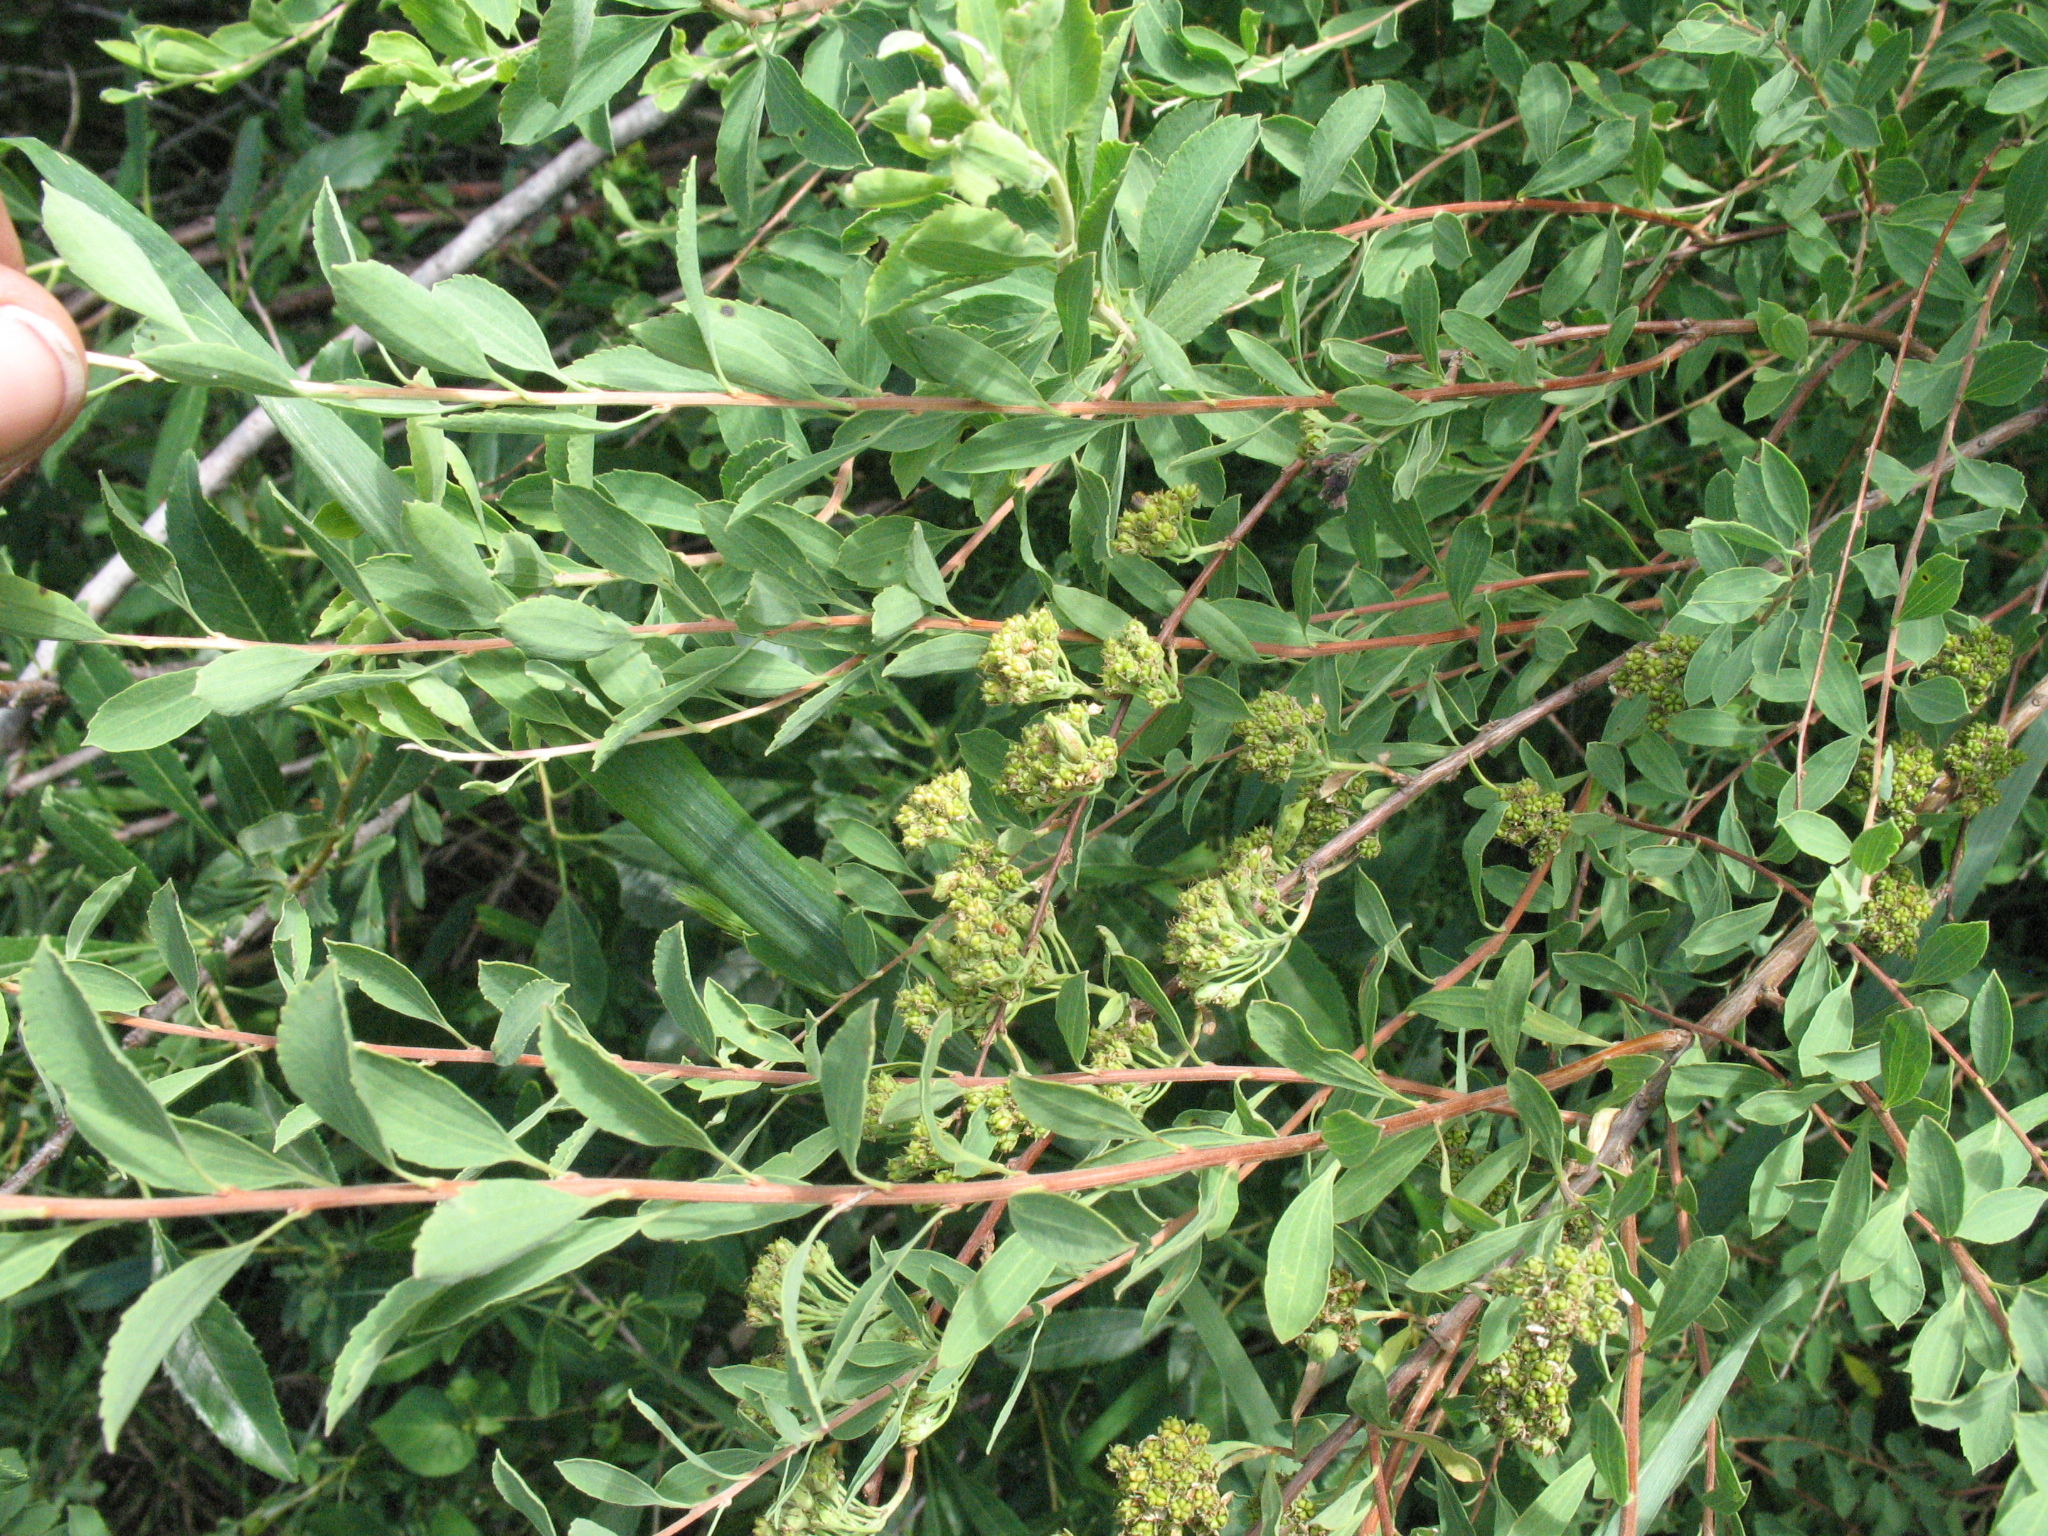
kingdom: Plantae
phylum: Tracheophyta
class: Magnoliopsida
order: Rosales
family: Rosaceae
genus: Spiraea
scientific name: Spiraea crenata
